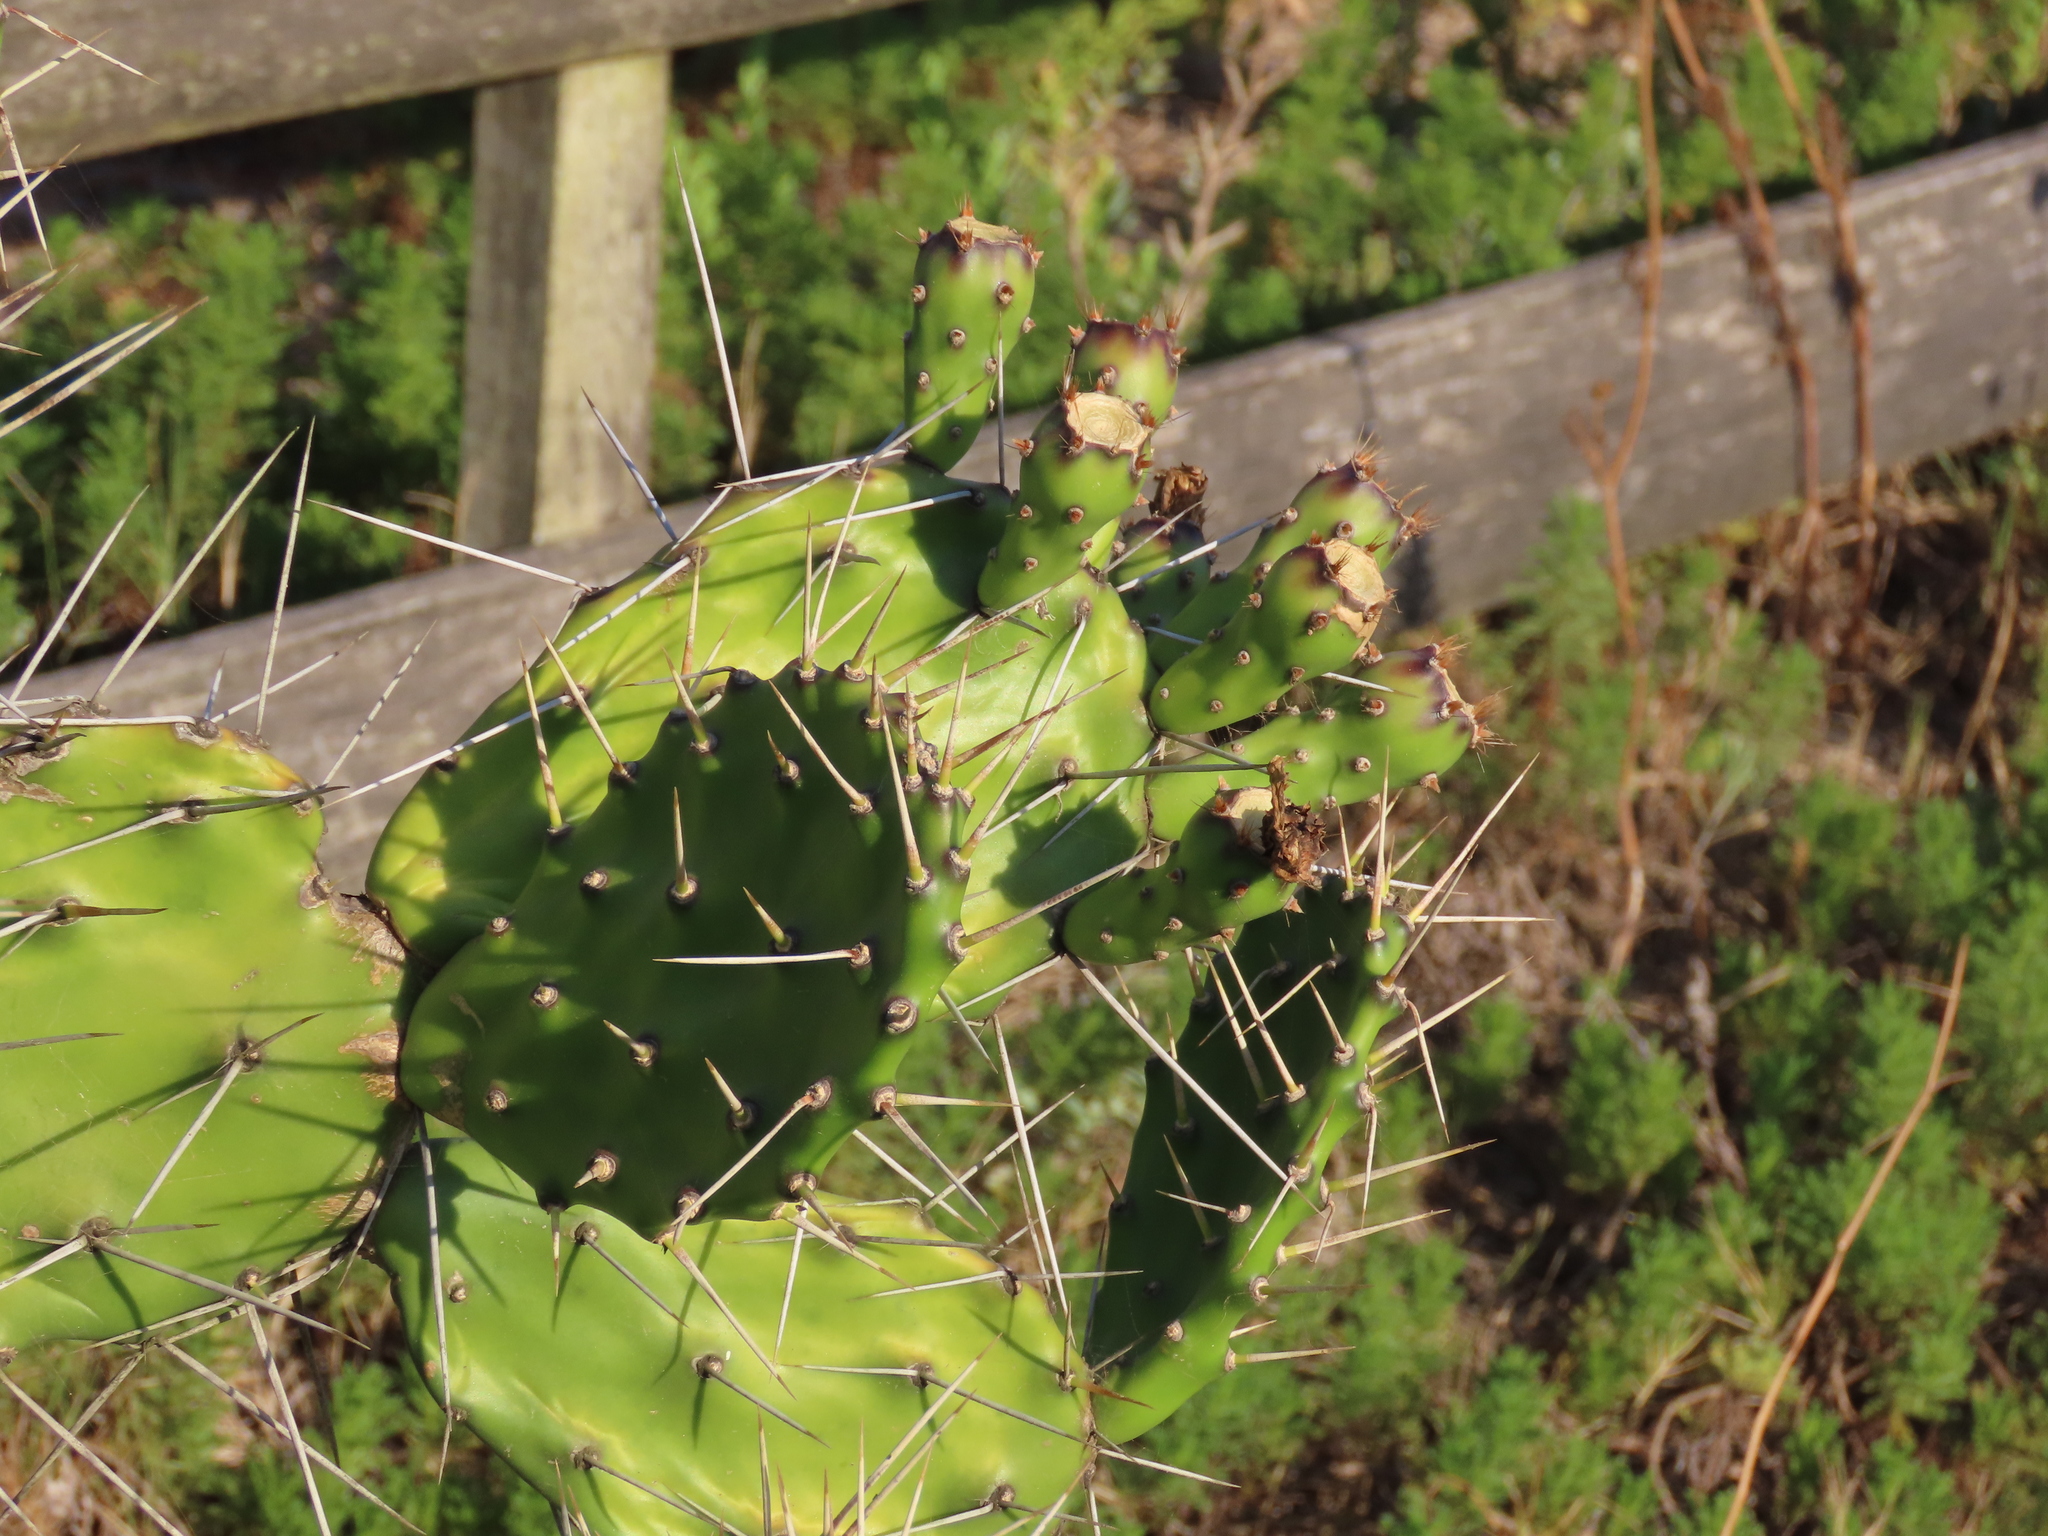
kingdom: Plantae
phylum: Tracheophyta
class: Magnoliopsida
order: Caryophyllales
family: Cactaceae
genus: Opuntia
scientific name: Opuntia arechavaletae
